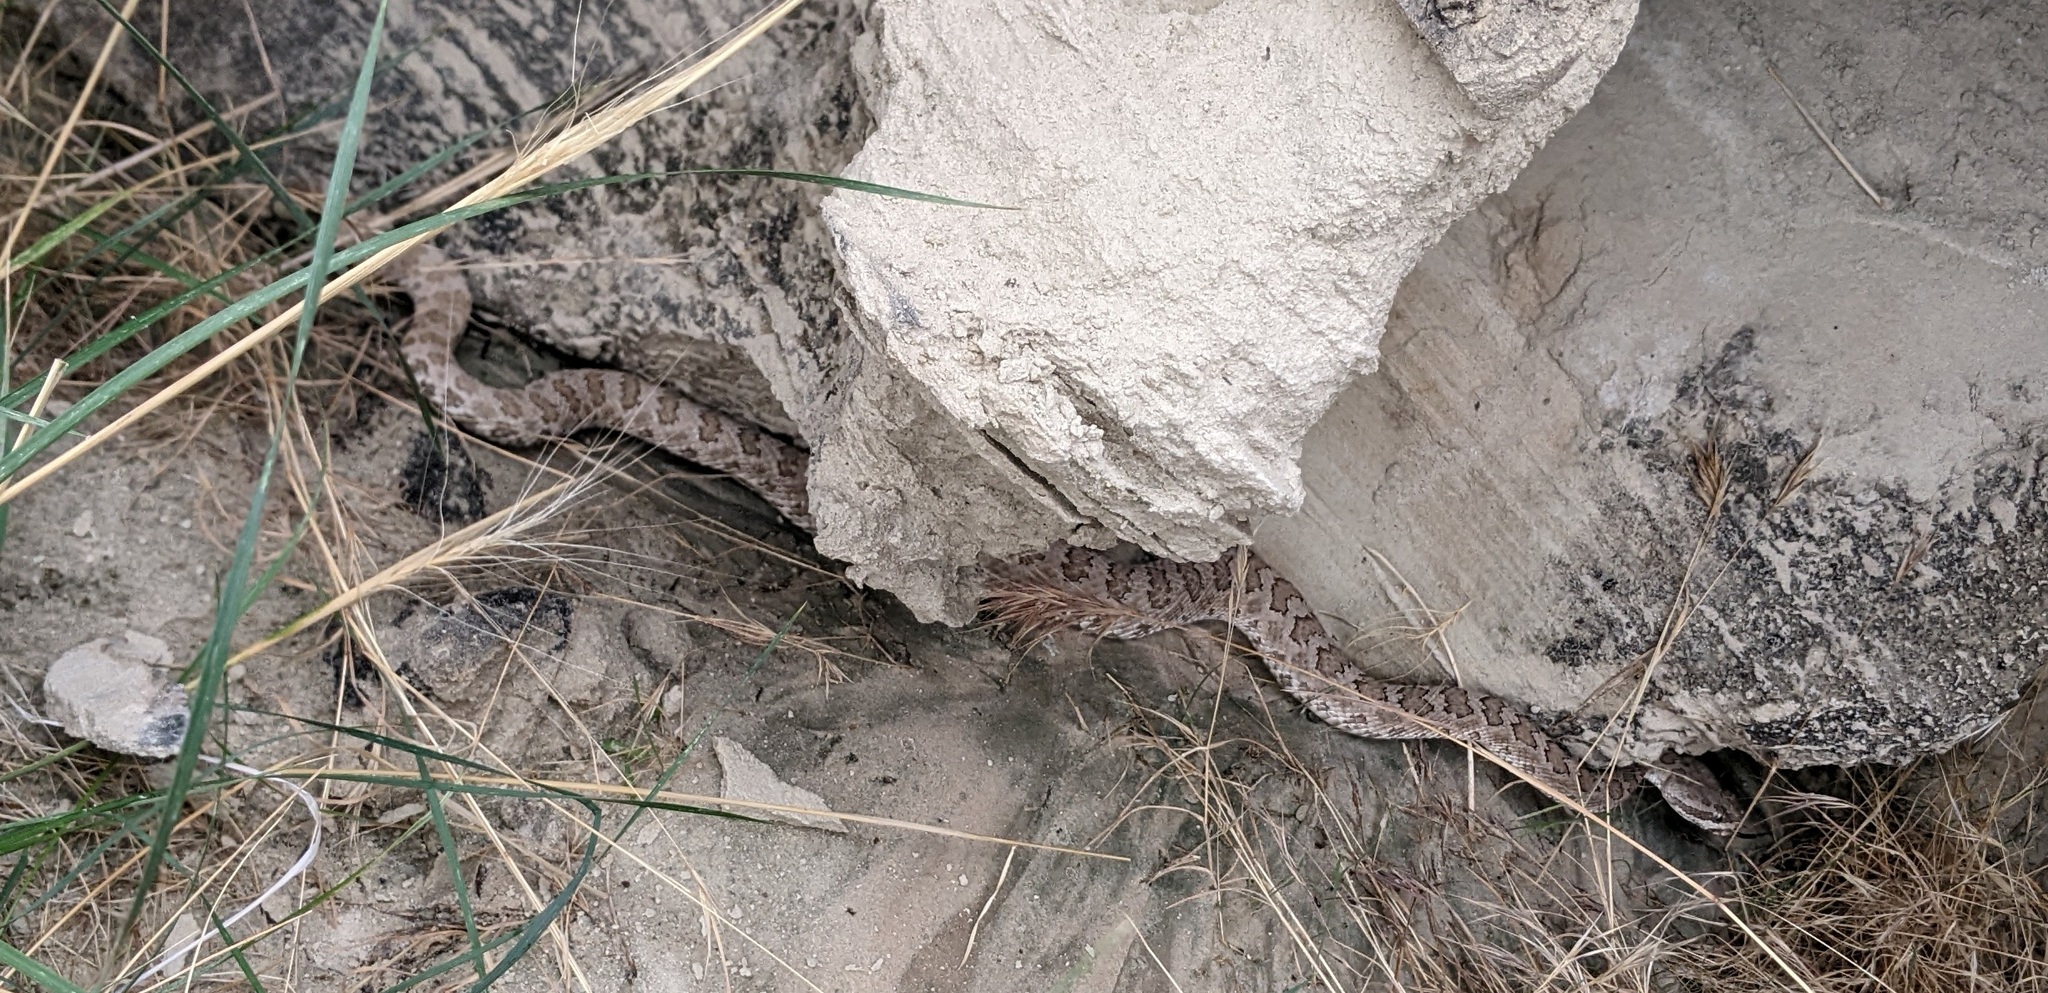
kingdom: Animalia
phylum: Chordata
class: Squamata
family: Viperidae
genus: Crotalus
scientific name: Crotalus oreganus
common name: Abyssus
